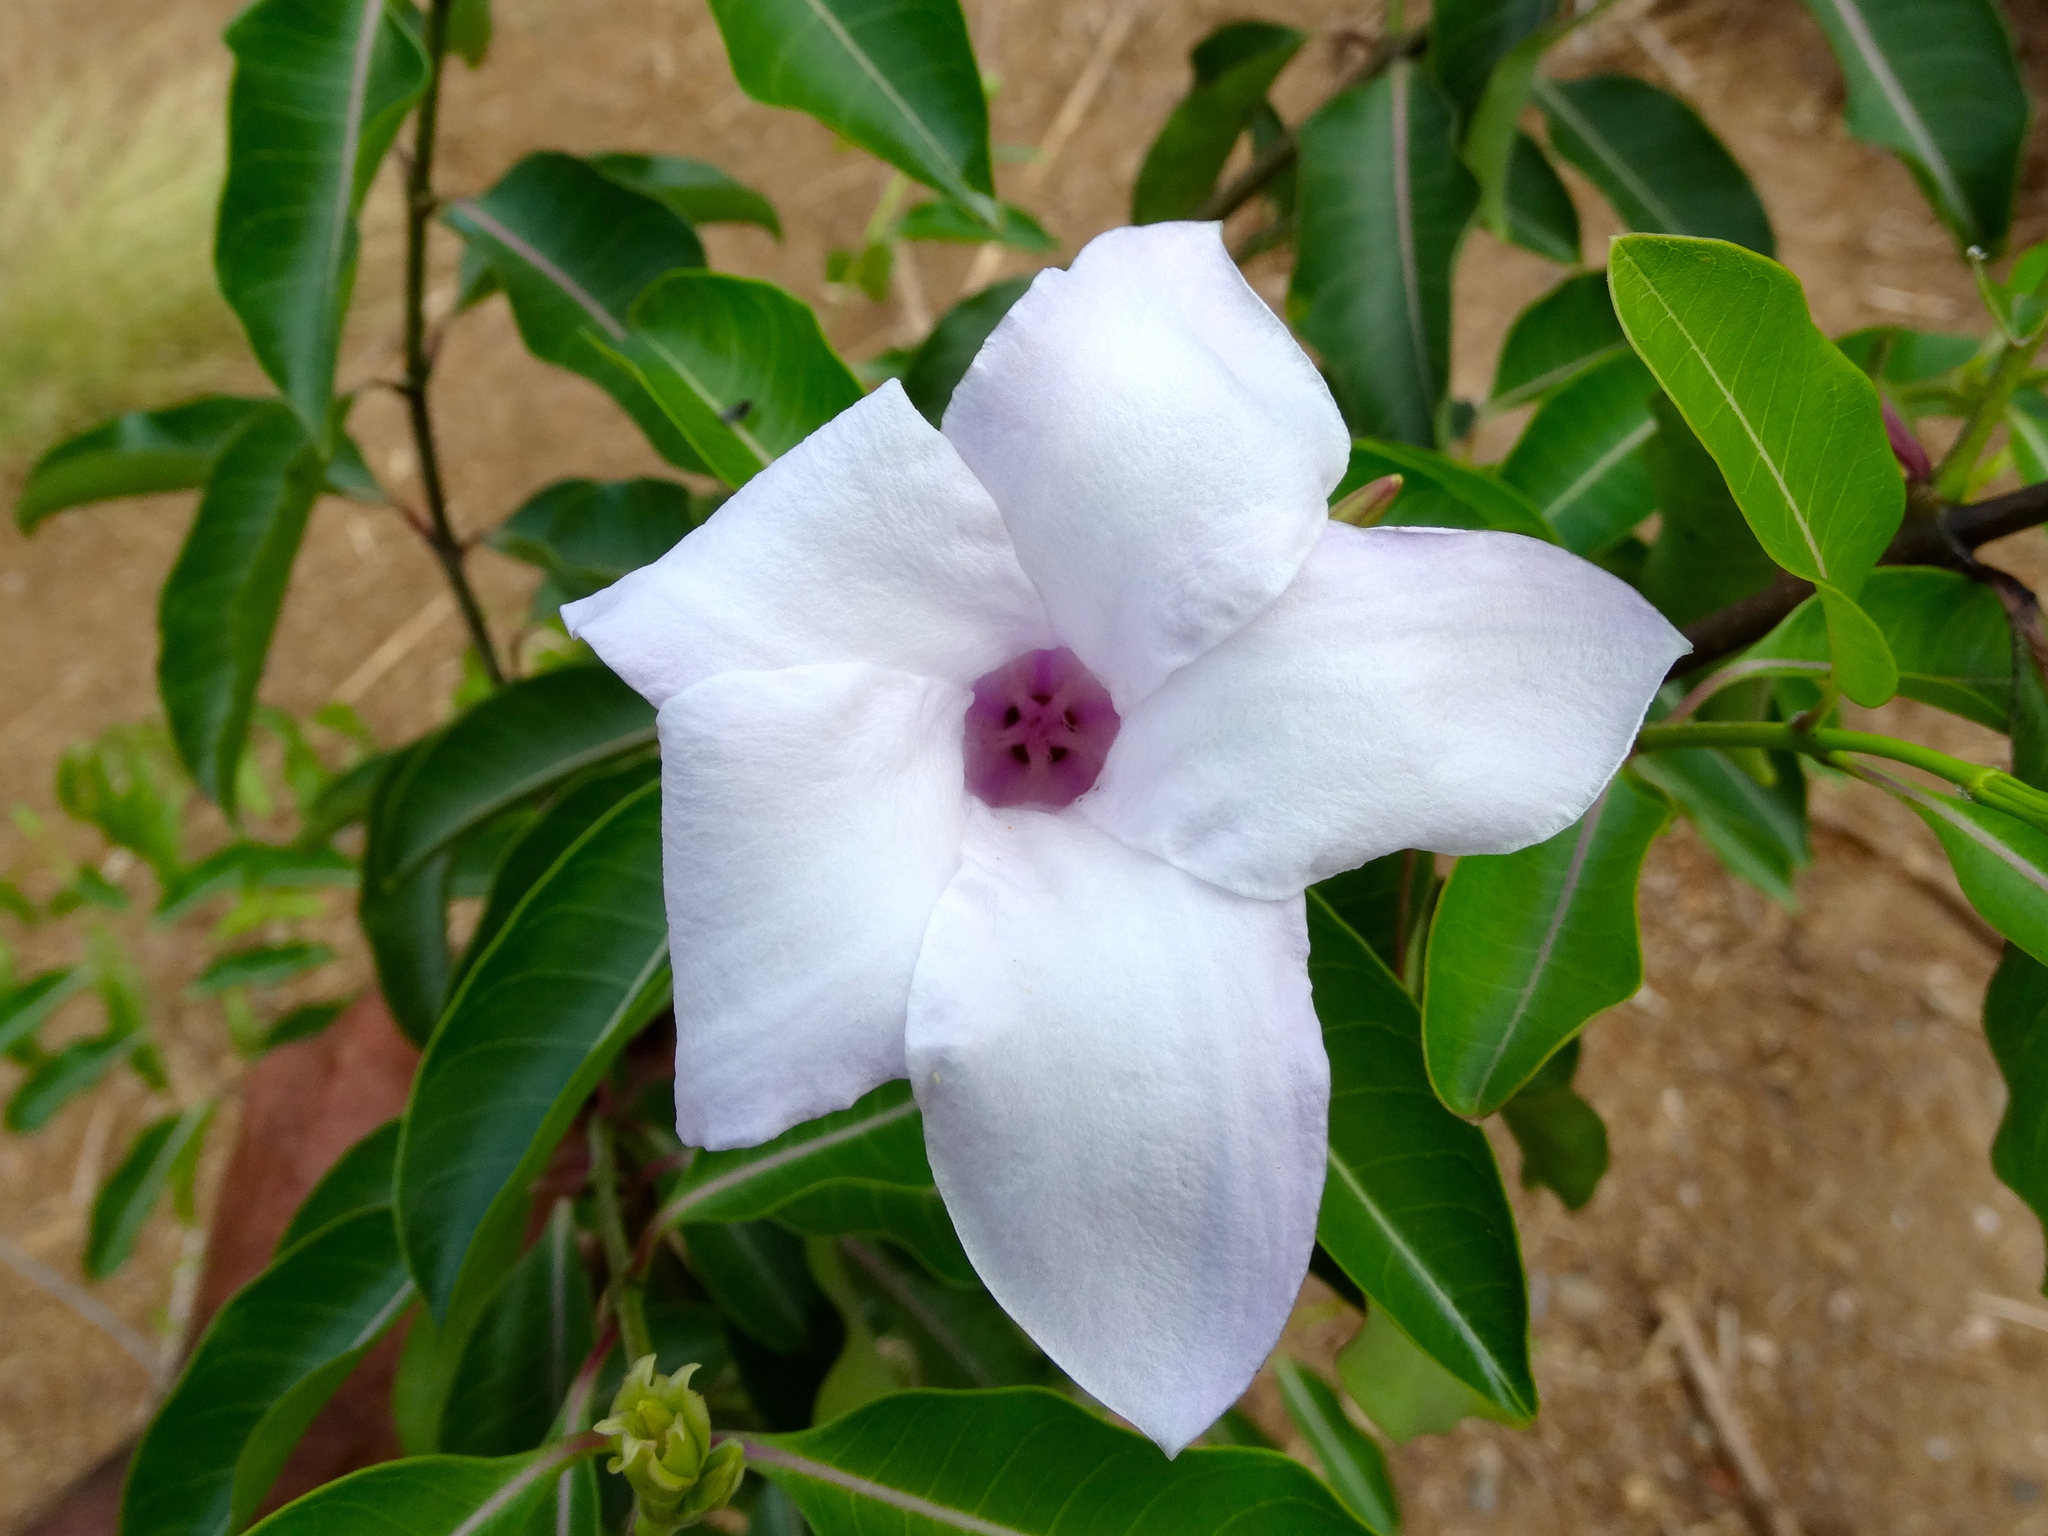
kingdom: Plantae
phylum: Tracheophyta
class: Magnoliopsida
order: Gentianales
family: Apocynaceae
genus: Cryptostegia
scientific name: Cryptostegia grandiflora
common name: Palay rubbervine
